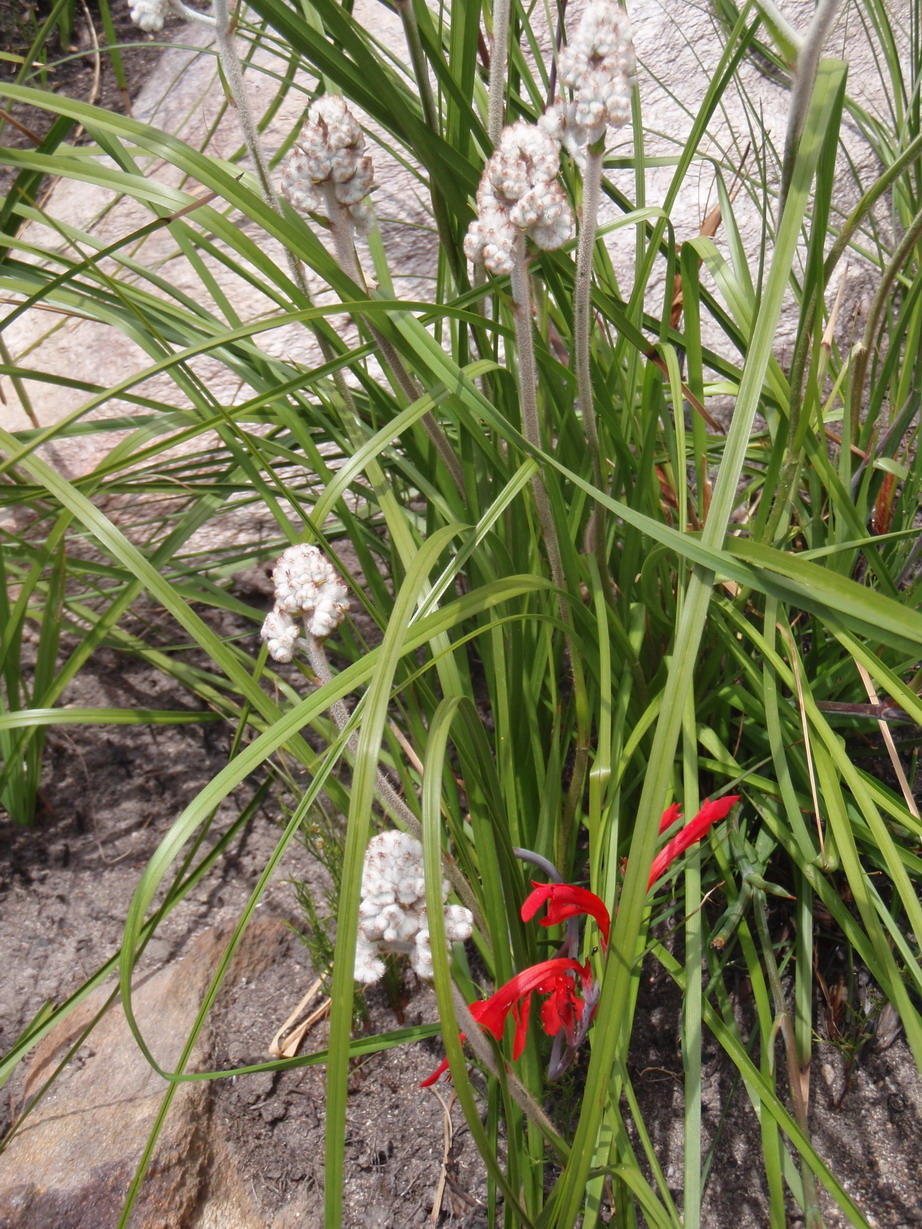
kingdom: Plantae
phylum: Tracheophyta
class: Liliopsida
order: Asparagales
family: Lanariaceae
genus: Lanaria
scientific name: Lanaria lanata
